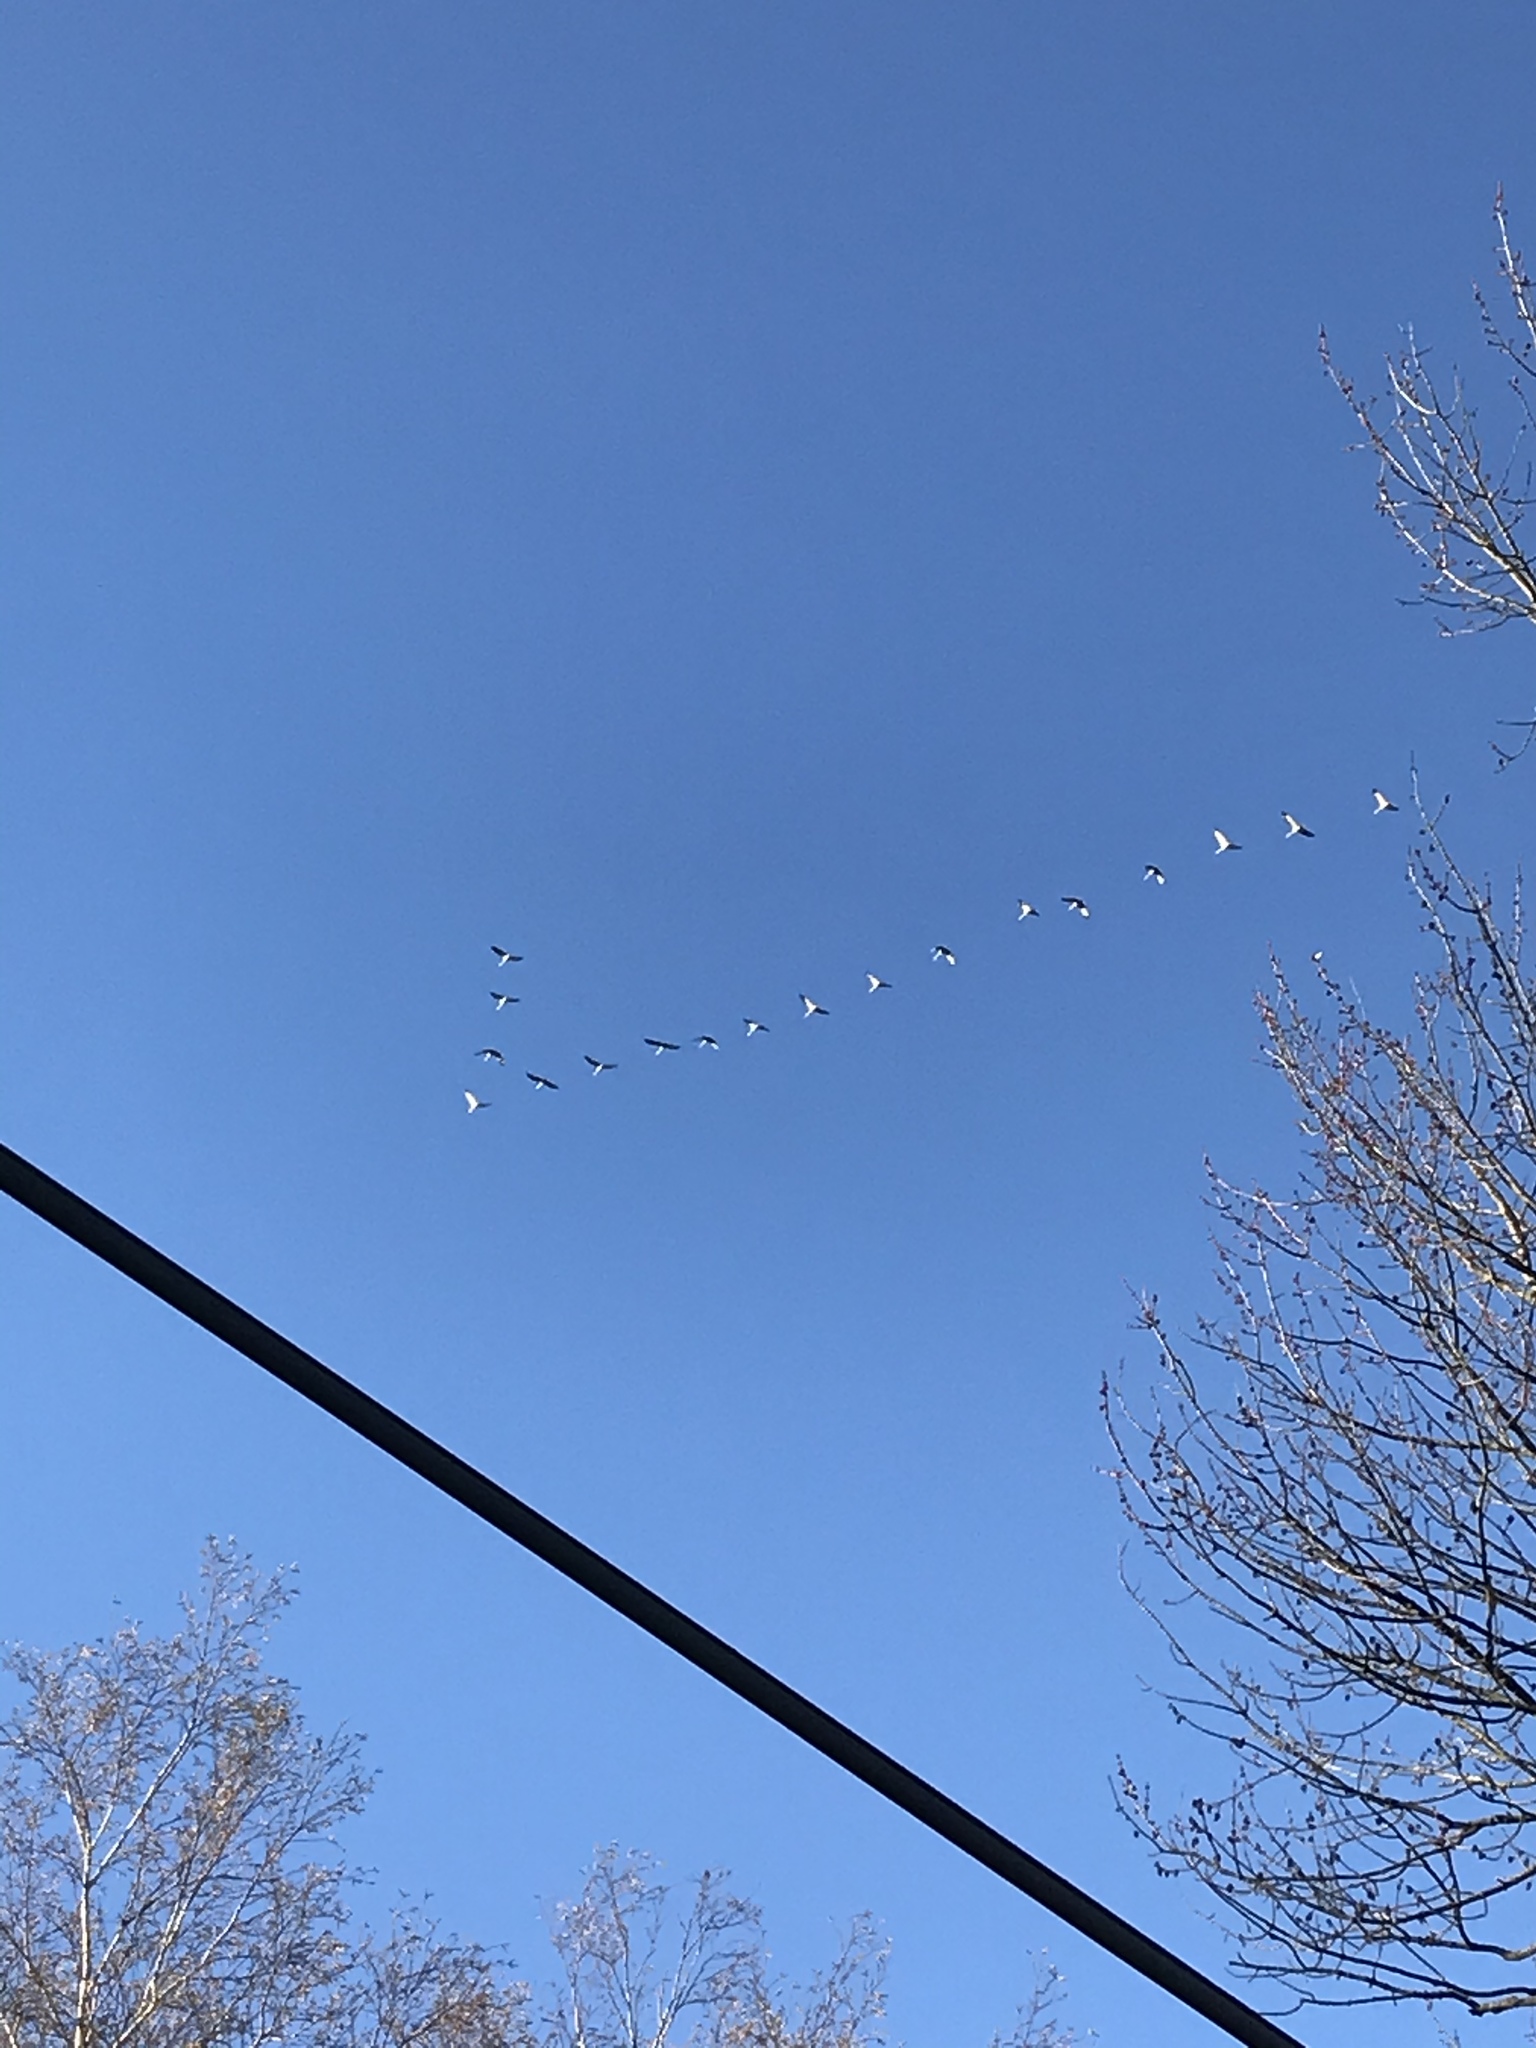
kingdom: Animalia
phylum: Chordata
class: Aves
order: Anseriformes
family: Anatidae
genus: Anser
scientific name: Anser caerulescens
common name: Snow goose
